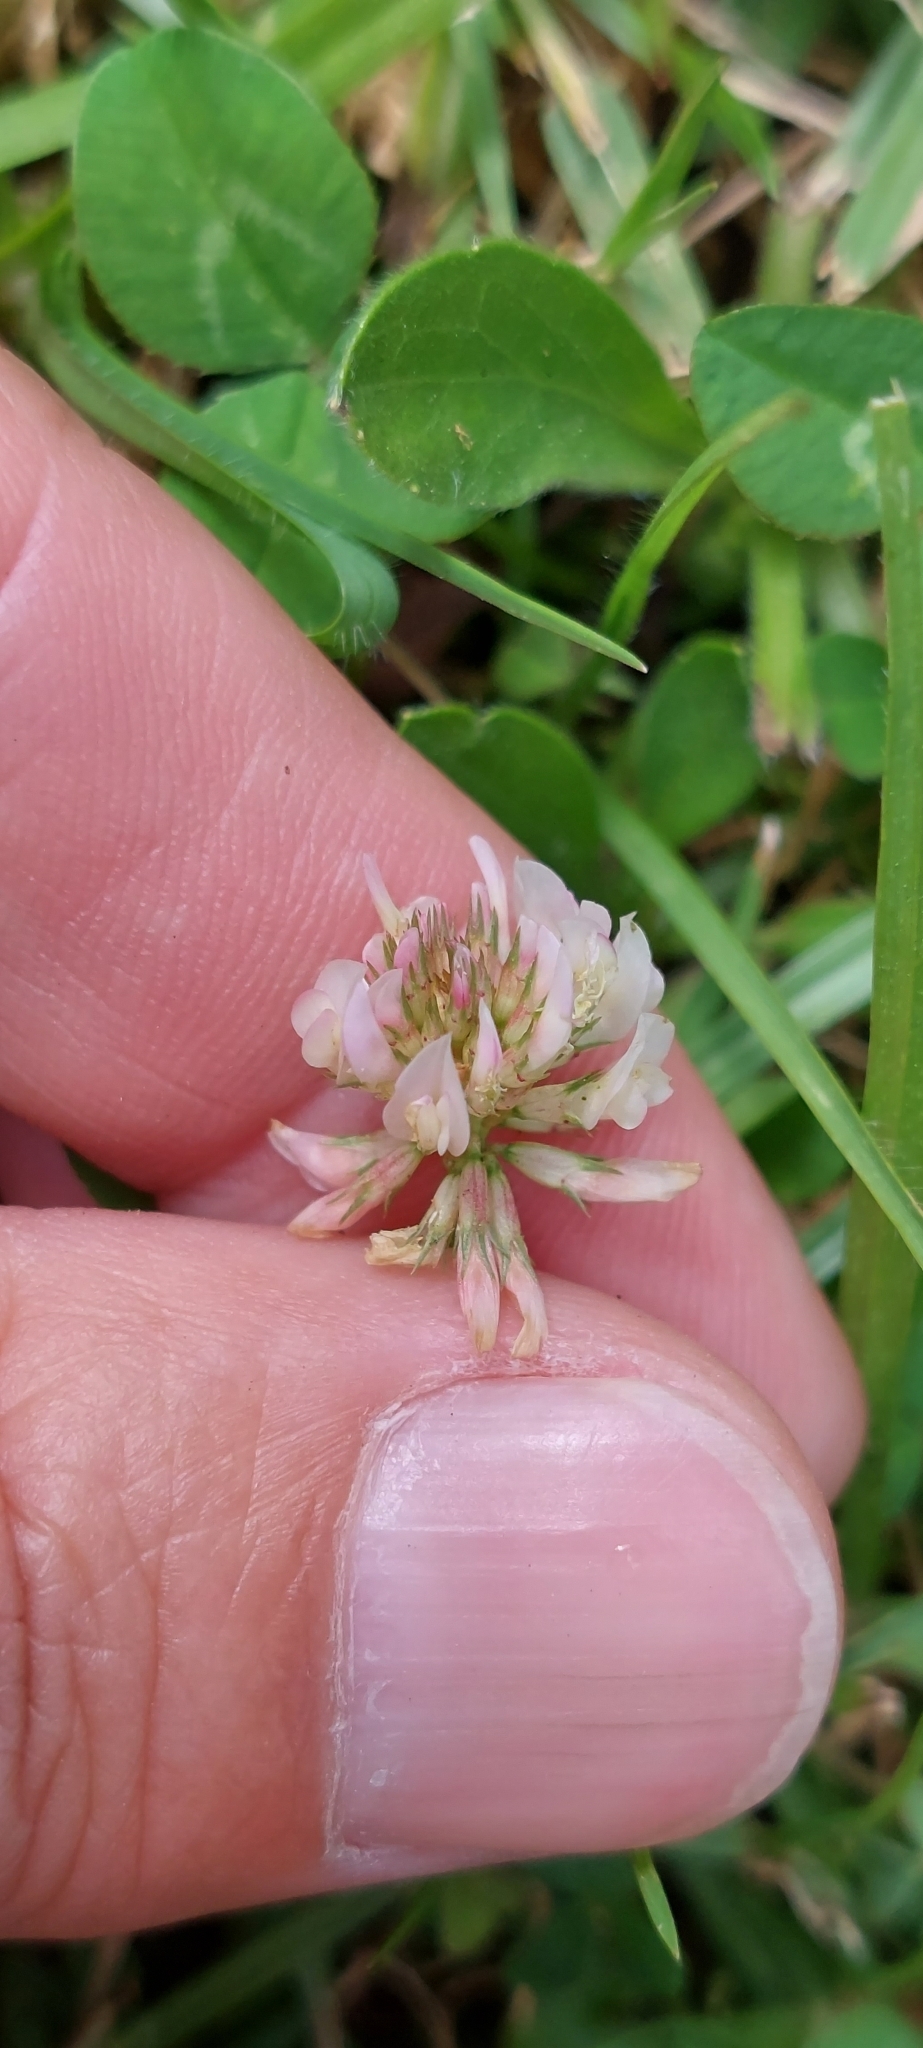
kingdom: Plantae
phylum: Tracheophyta
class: Magnoliopsida
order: Fabales
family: Fabaceae
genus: Trifolium
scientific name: Trifolium repens
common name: White clover
